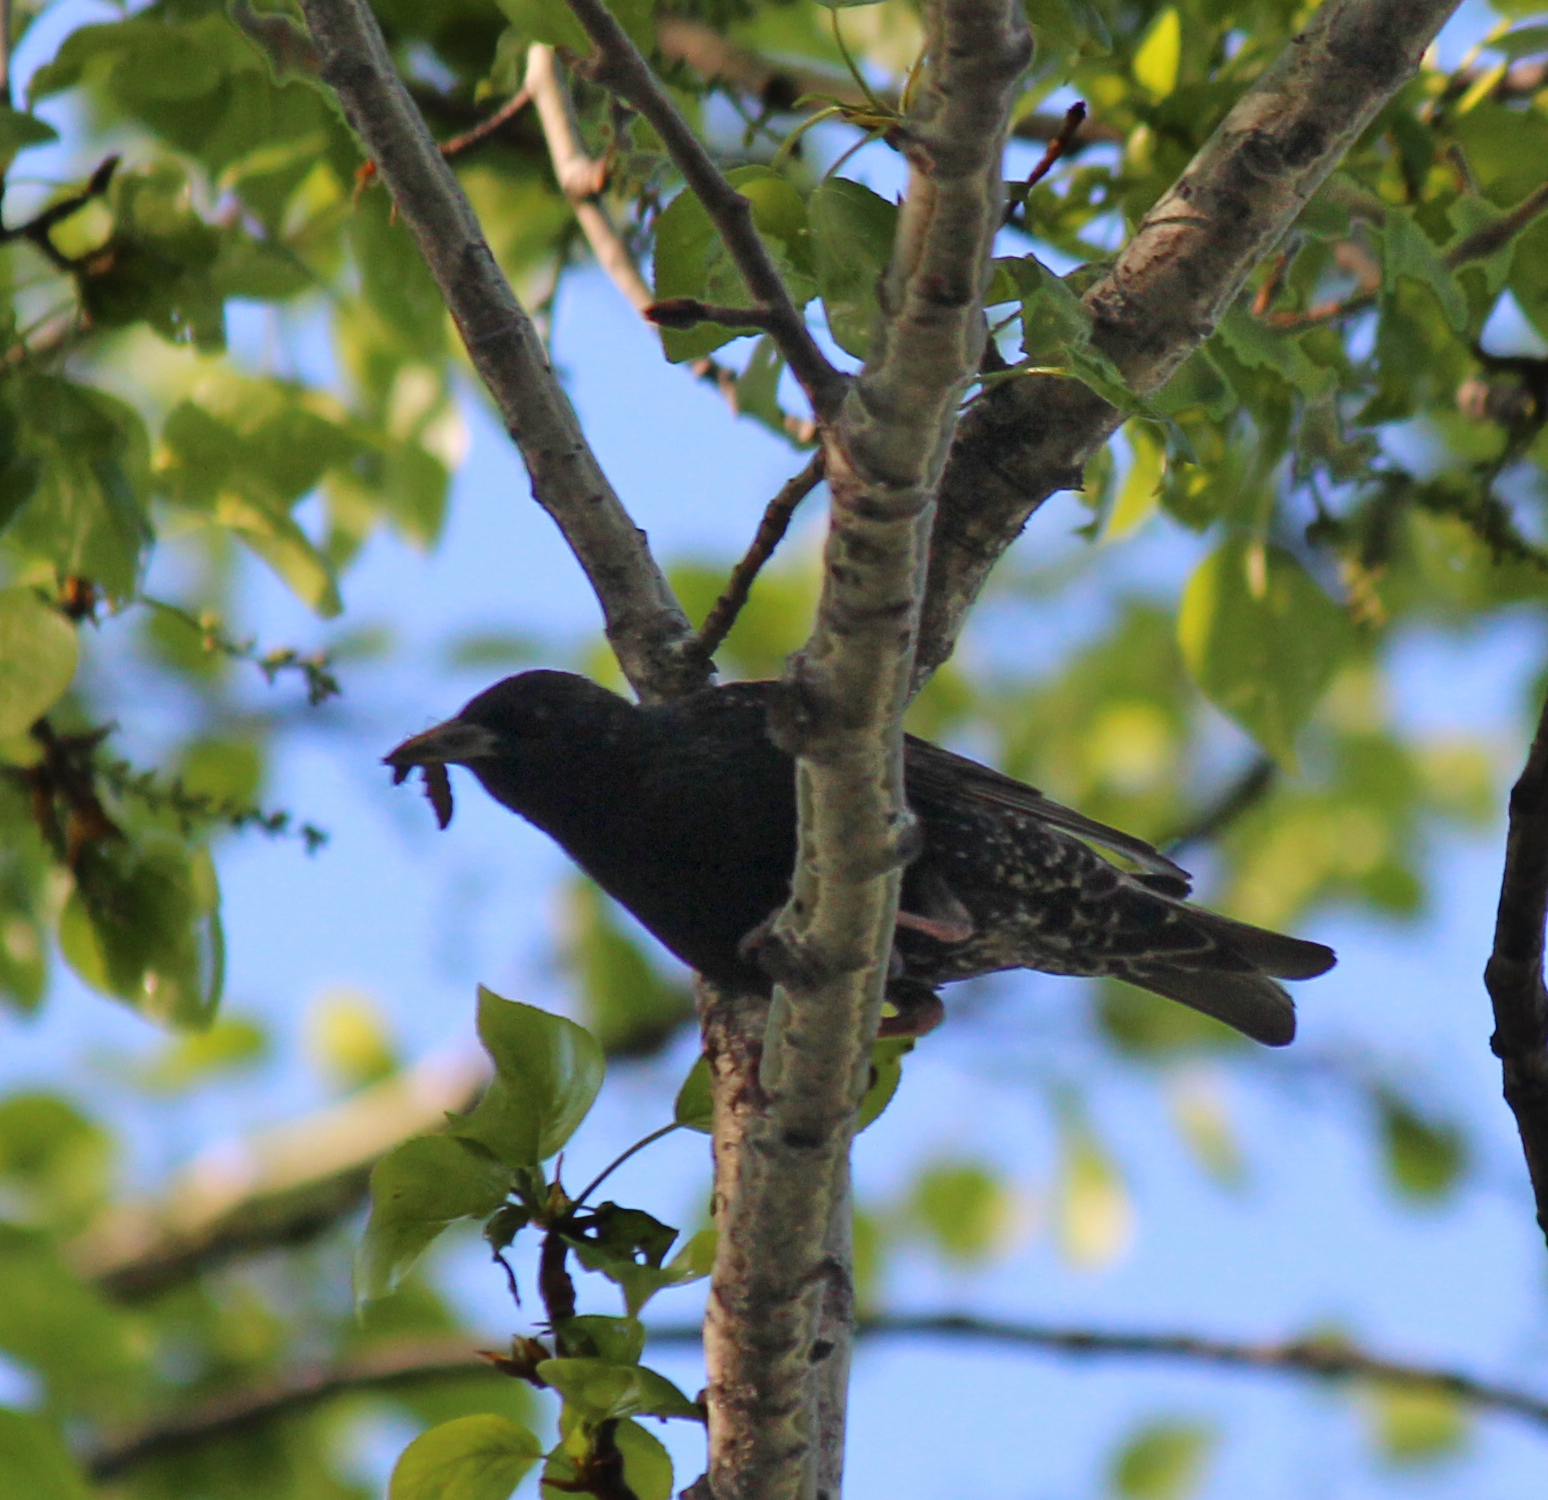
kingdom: Animalia
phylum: Chordata
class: Aves
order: Passeriformes
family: Sturnidae
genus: Sturnus
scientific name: Sturnus vulgaris
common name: Common starling
